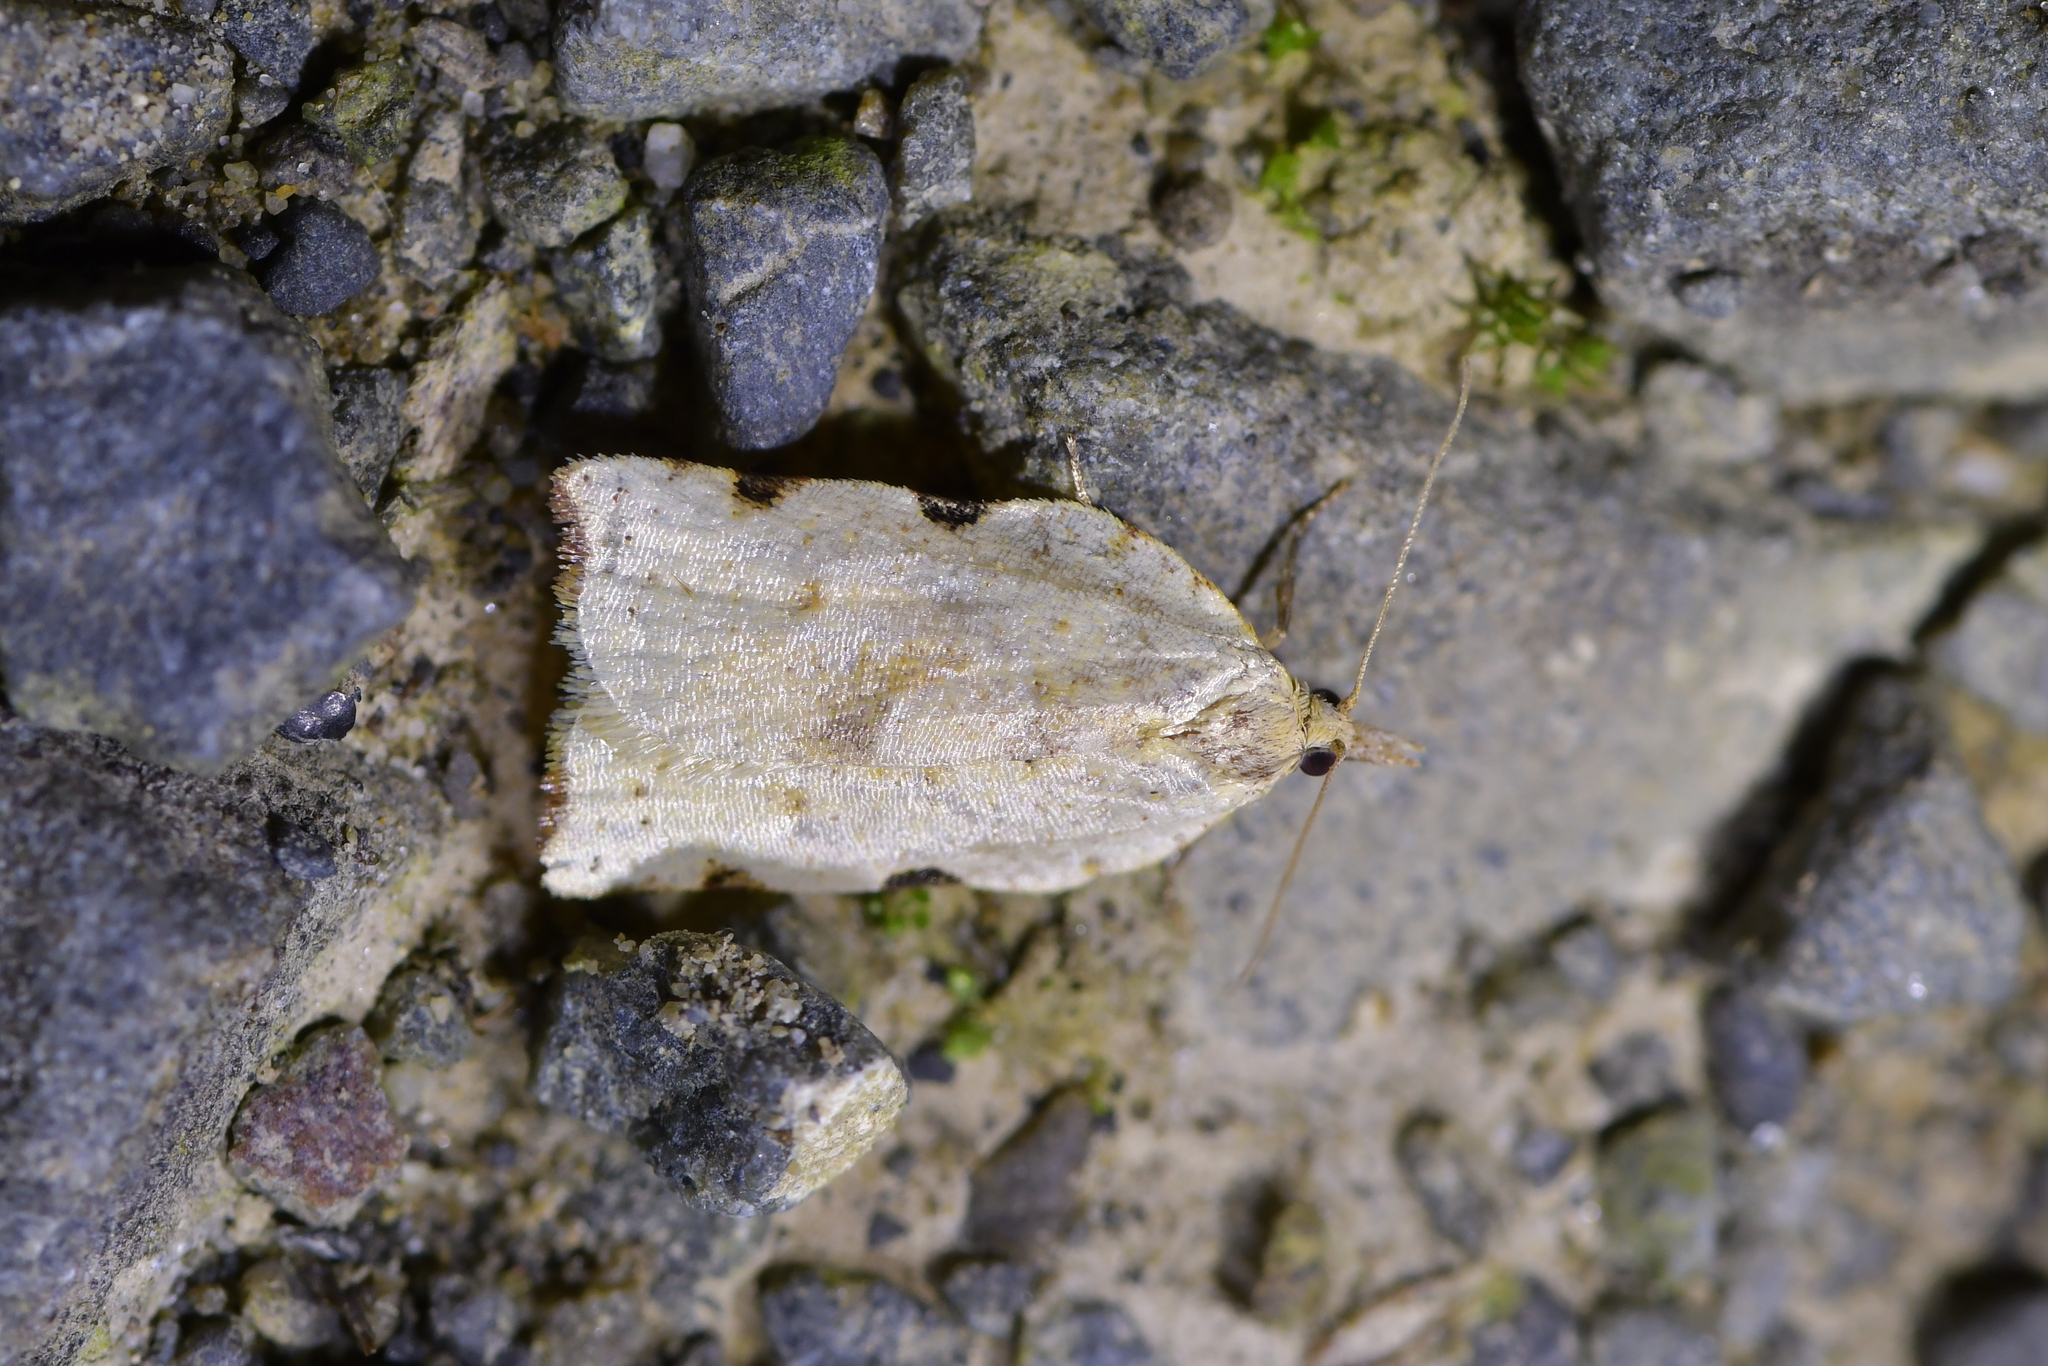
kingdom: Animalia
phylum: Arthropoda
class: Insecta
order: Lepidoptera
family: Tortricidae
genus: Apoctena
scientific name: Apoctena flavescens
